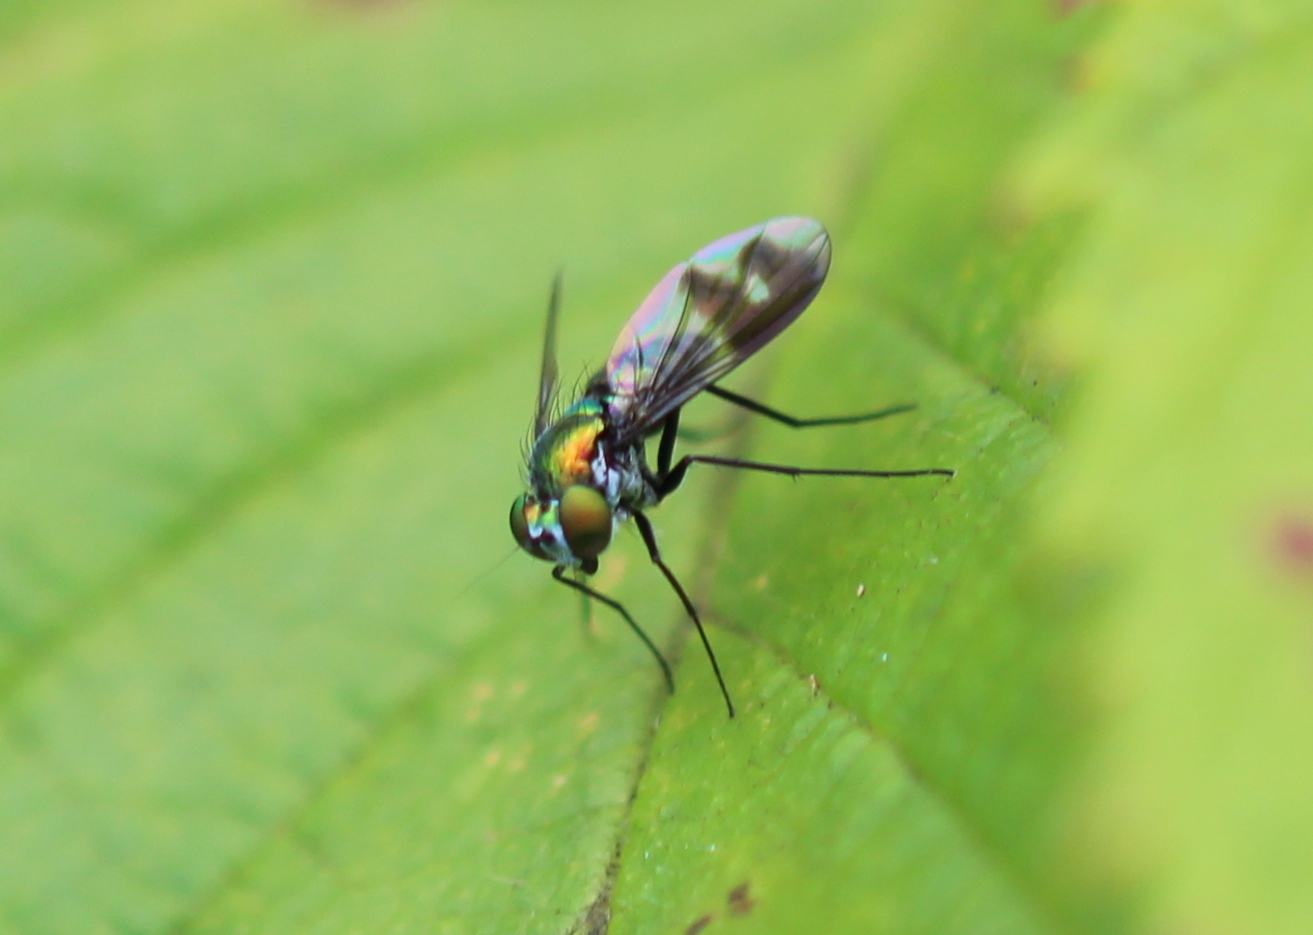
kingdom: Animalia
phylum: Arthropoda
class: Insecta
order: Diptera
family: Dolichopodidae
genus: Condylostylus
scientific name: Condylostylus patibulatus
